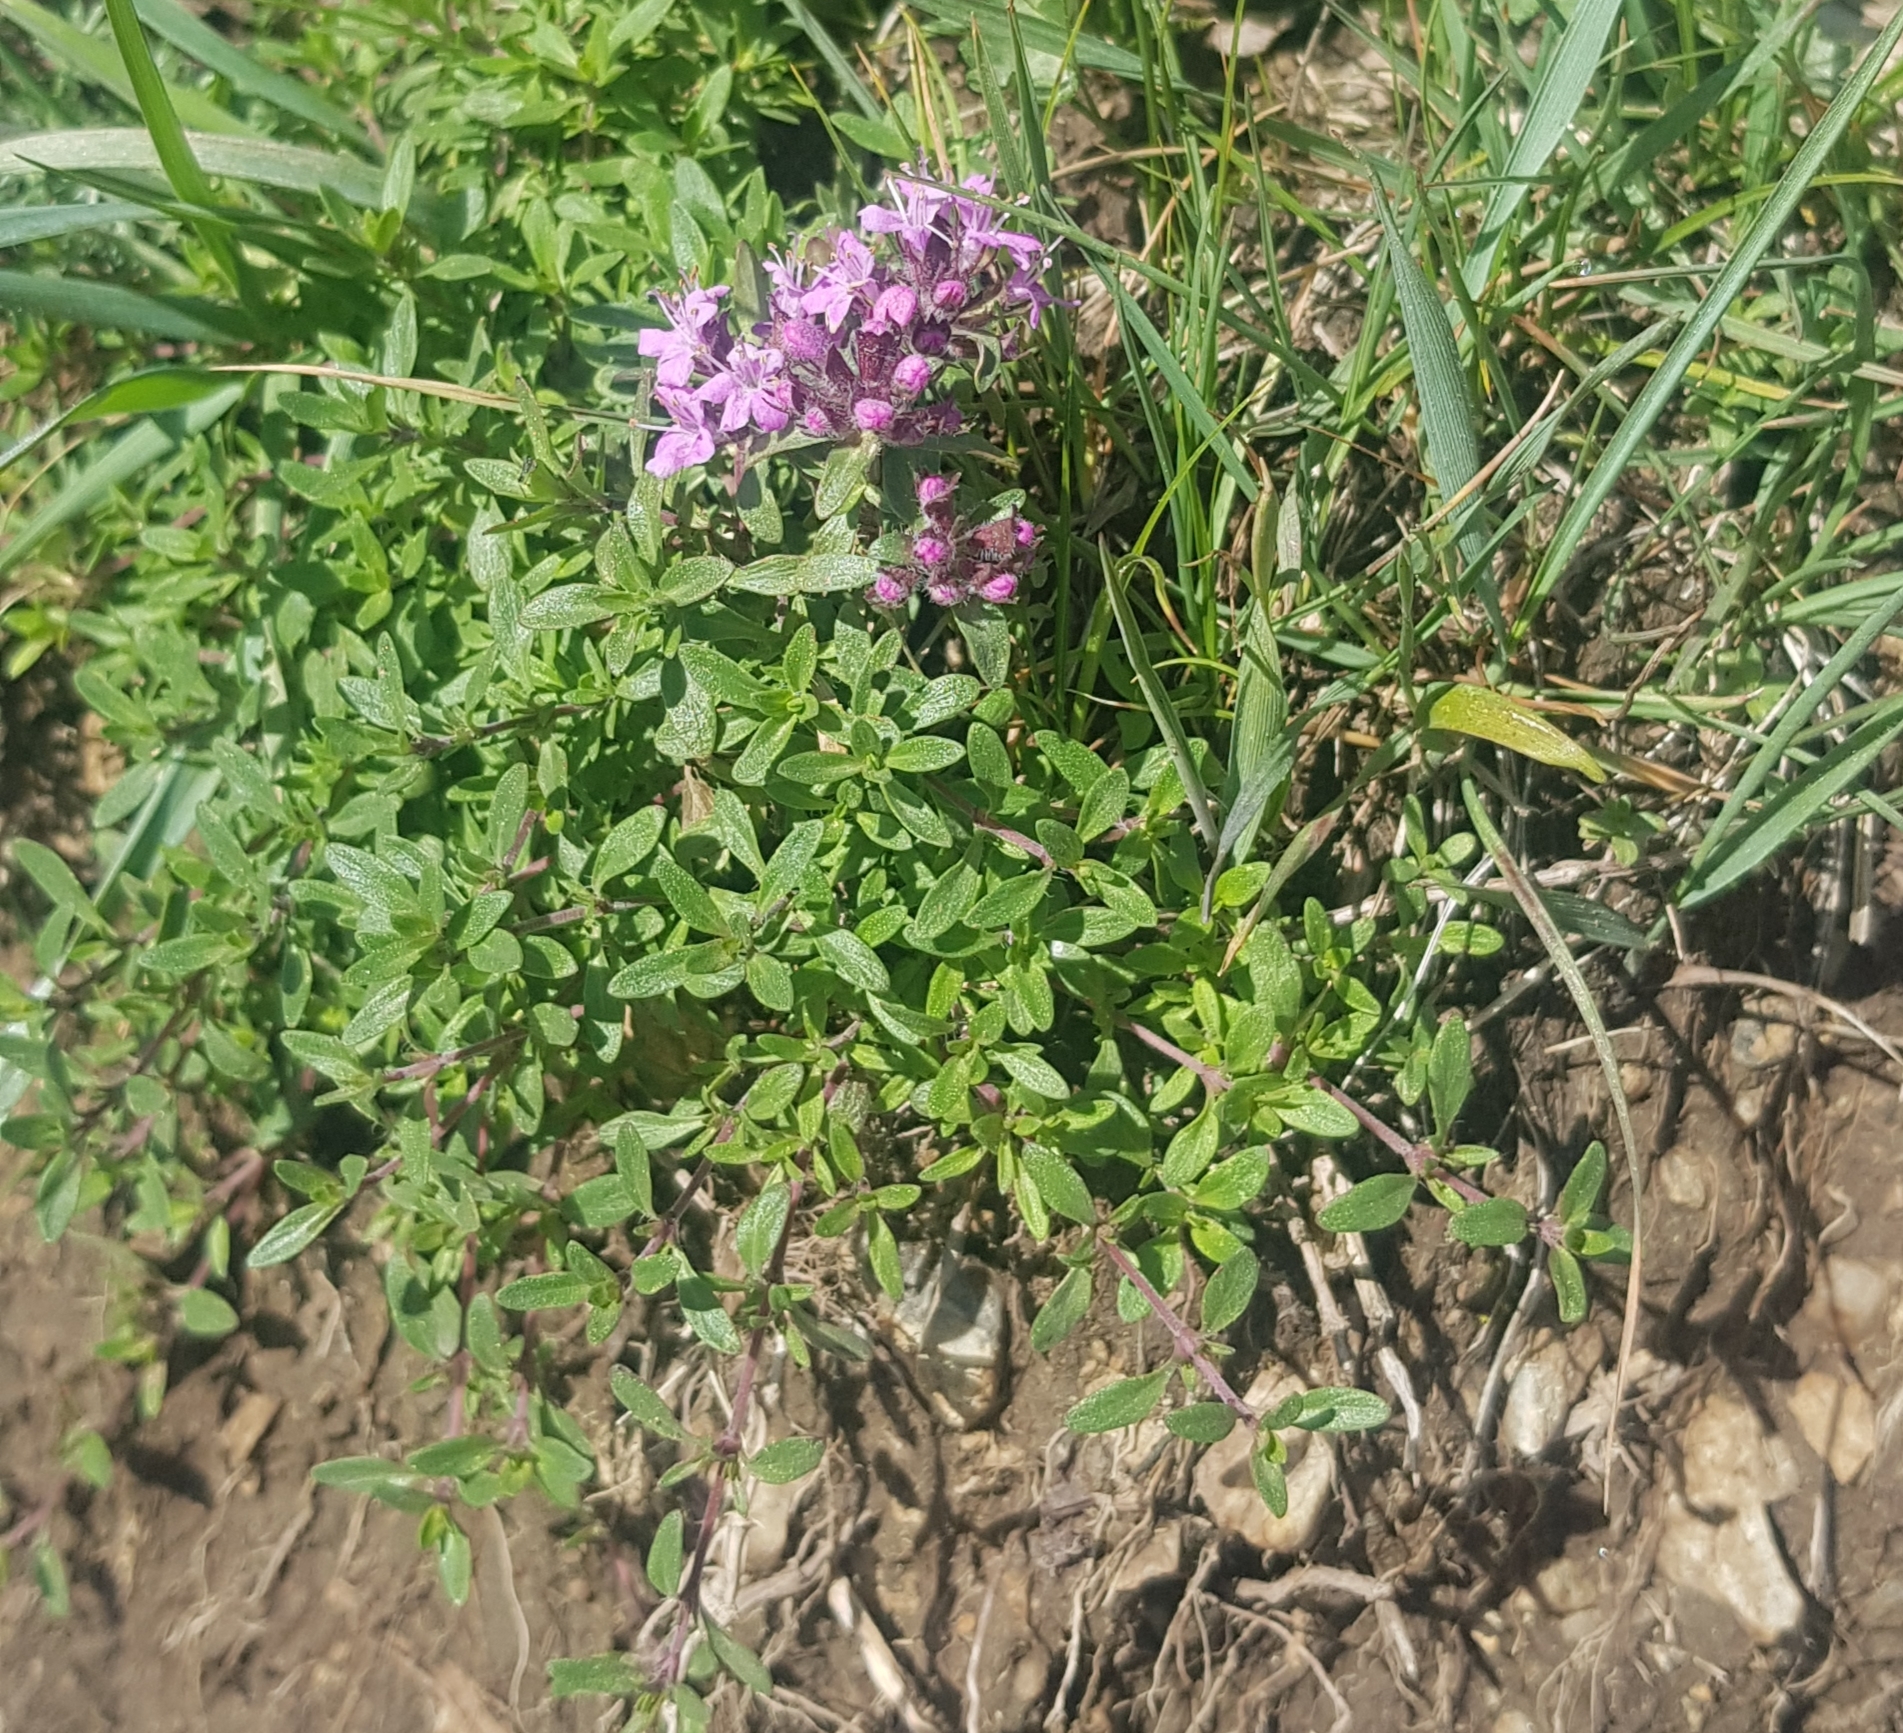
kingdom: Plantae
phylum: Tracheophyta
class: Magnoliopsida
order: Lamiales
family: Lamiaceae
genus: Thymus
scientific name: Thymus baicalensis
